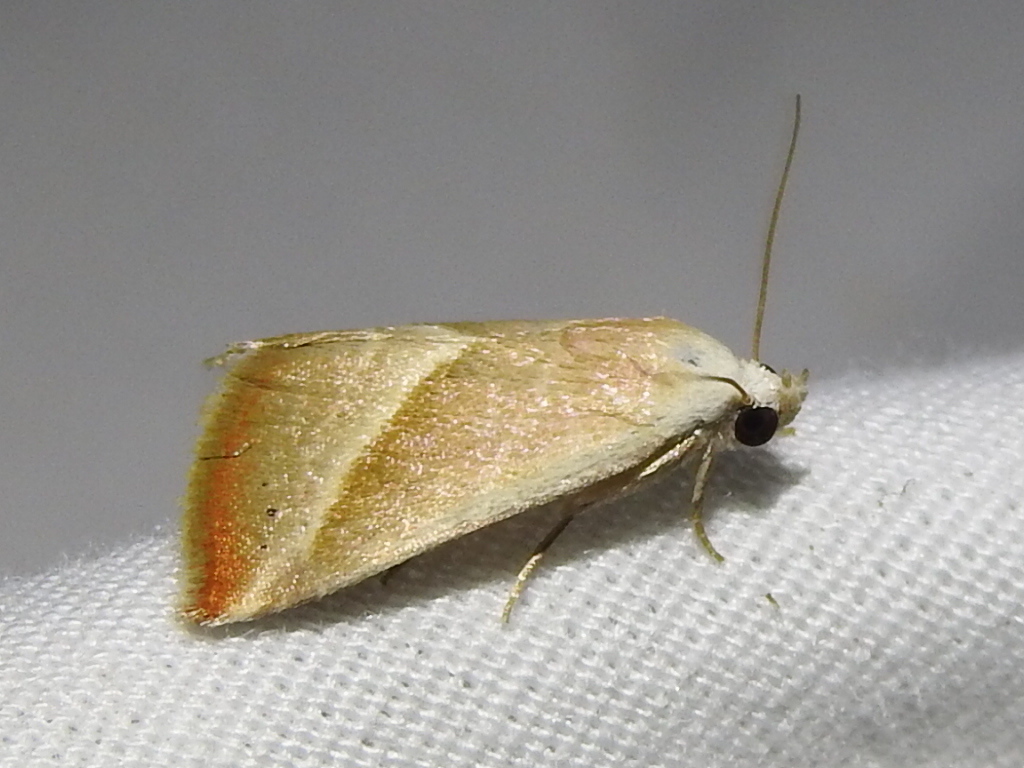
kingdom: Animalia
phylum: Arthropoda
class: Insecta
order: Lepidoptera
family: Noctuidae
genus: Eublemma
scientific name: Eublemma recta
